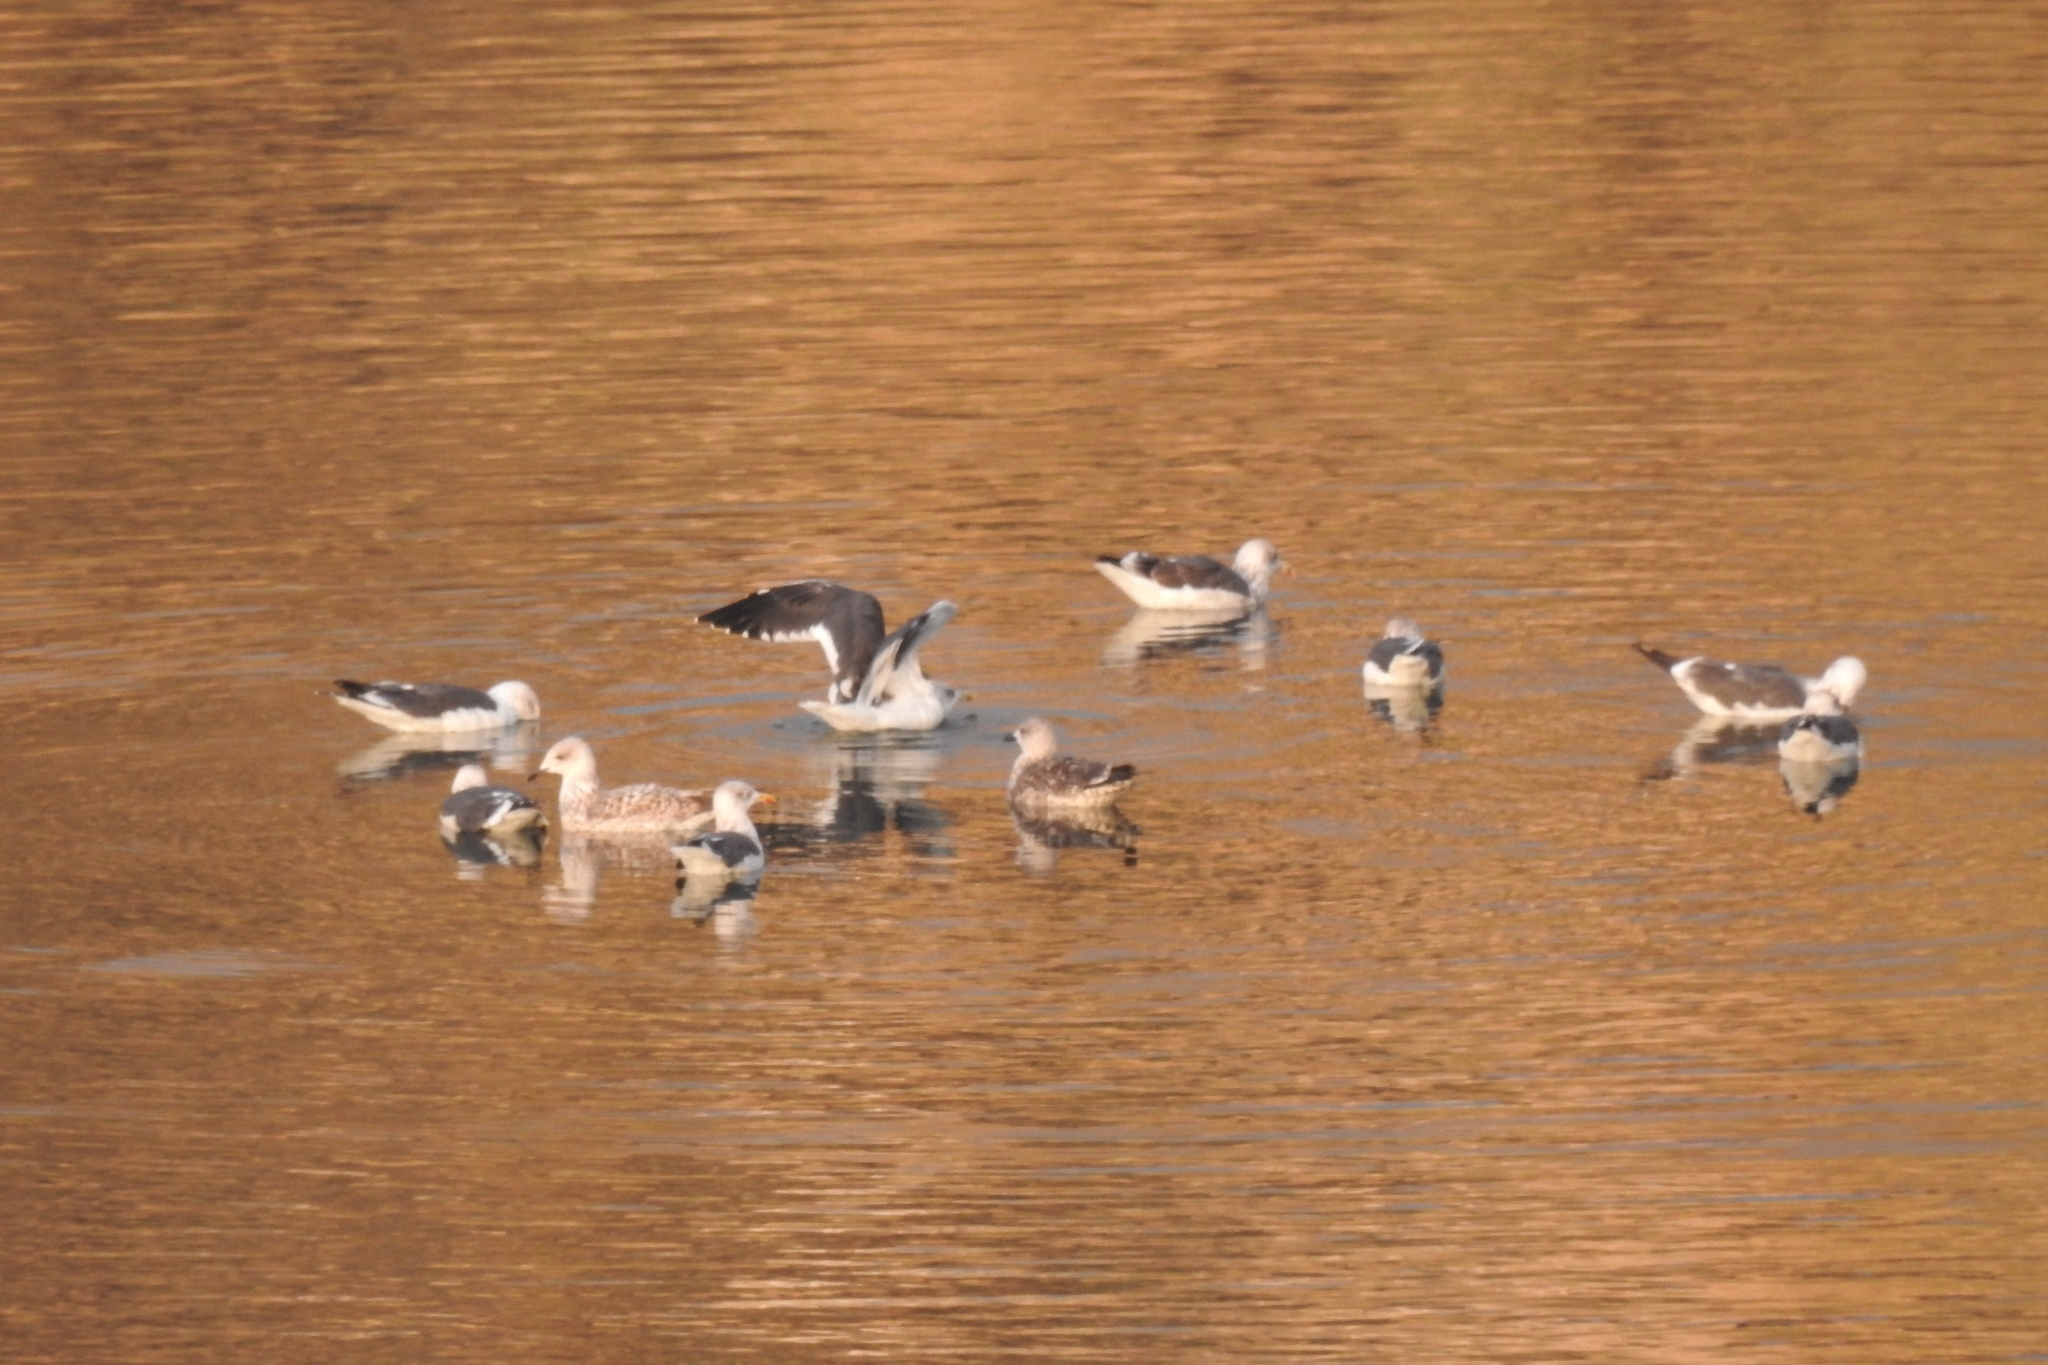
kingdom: Animalia
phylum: Chordata
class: Aves
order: Charadriiformes
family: Laridae
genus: Larus
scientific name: Larus fuscus
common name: Lesser black-backed gull
